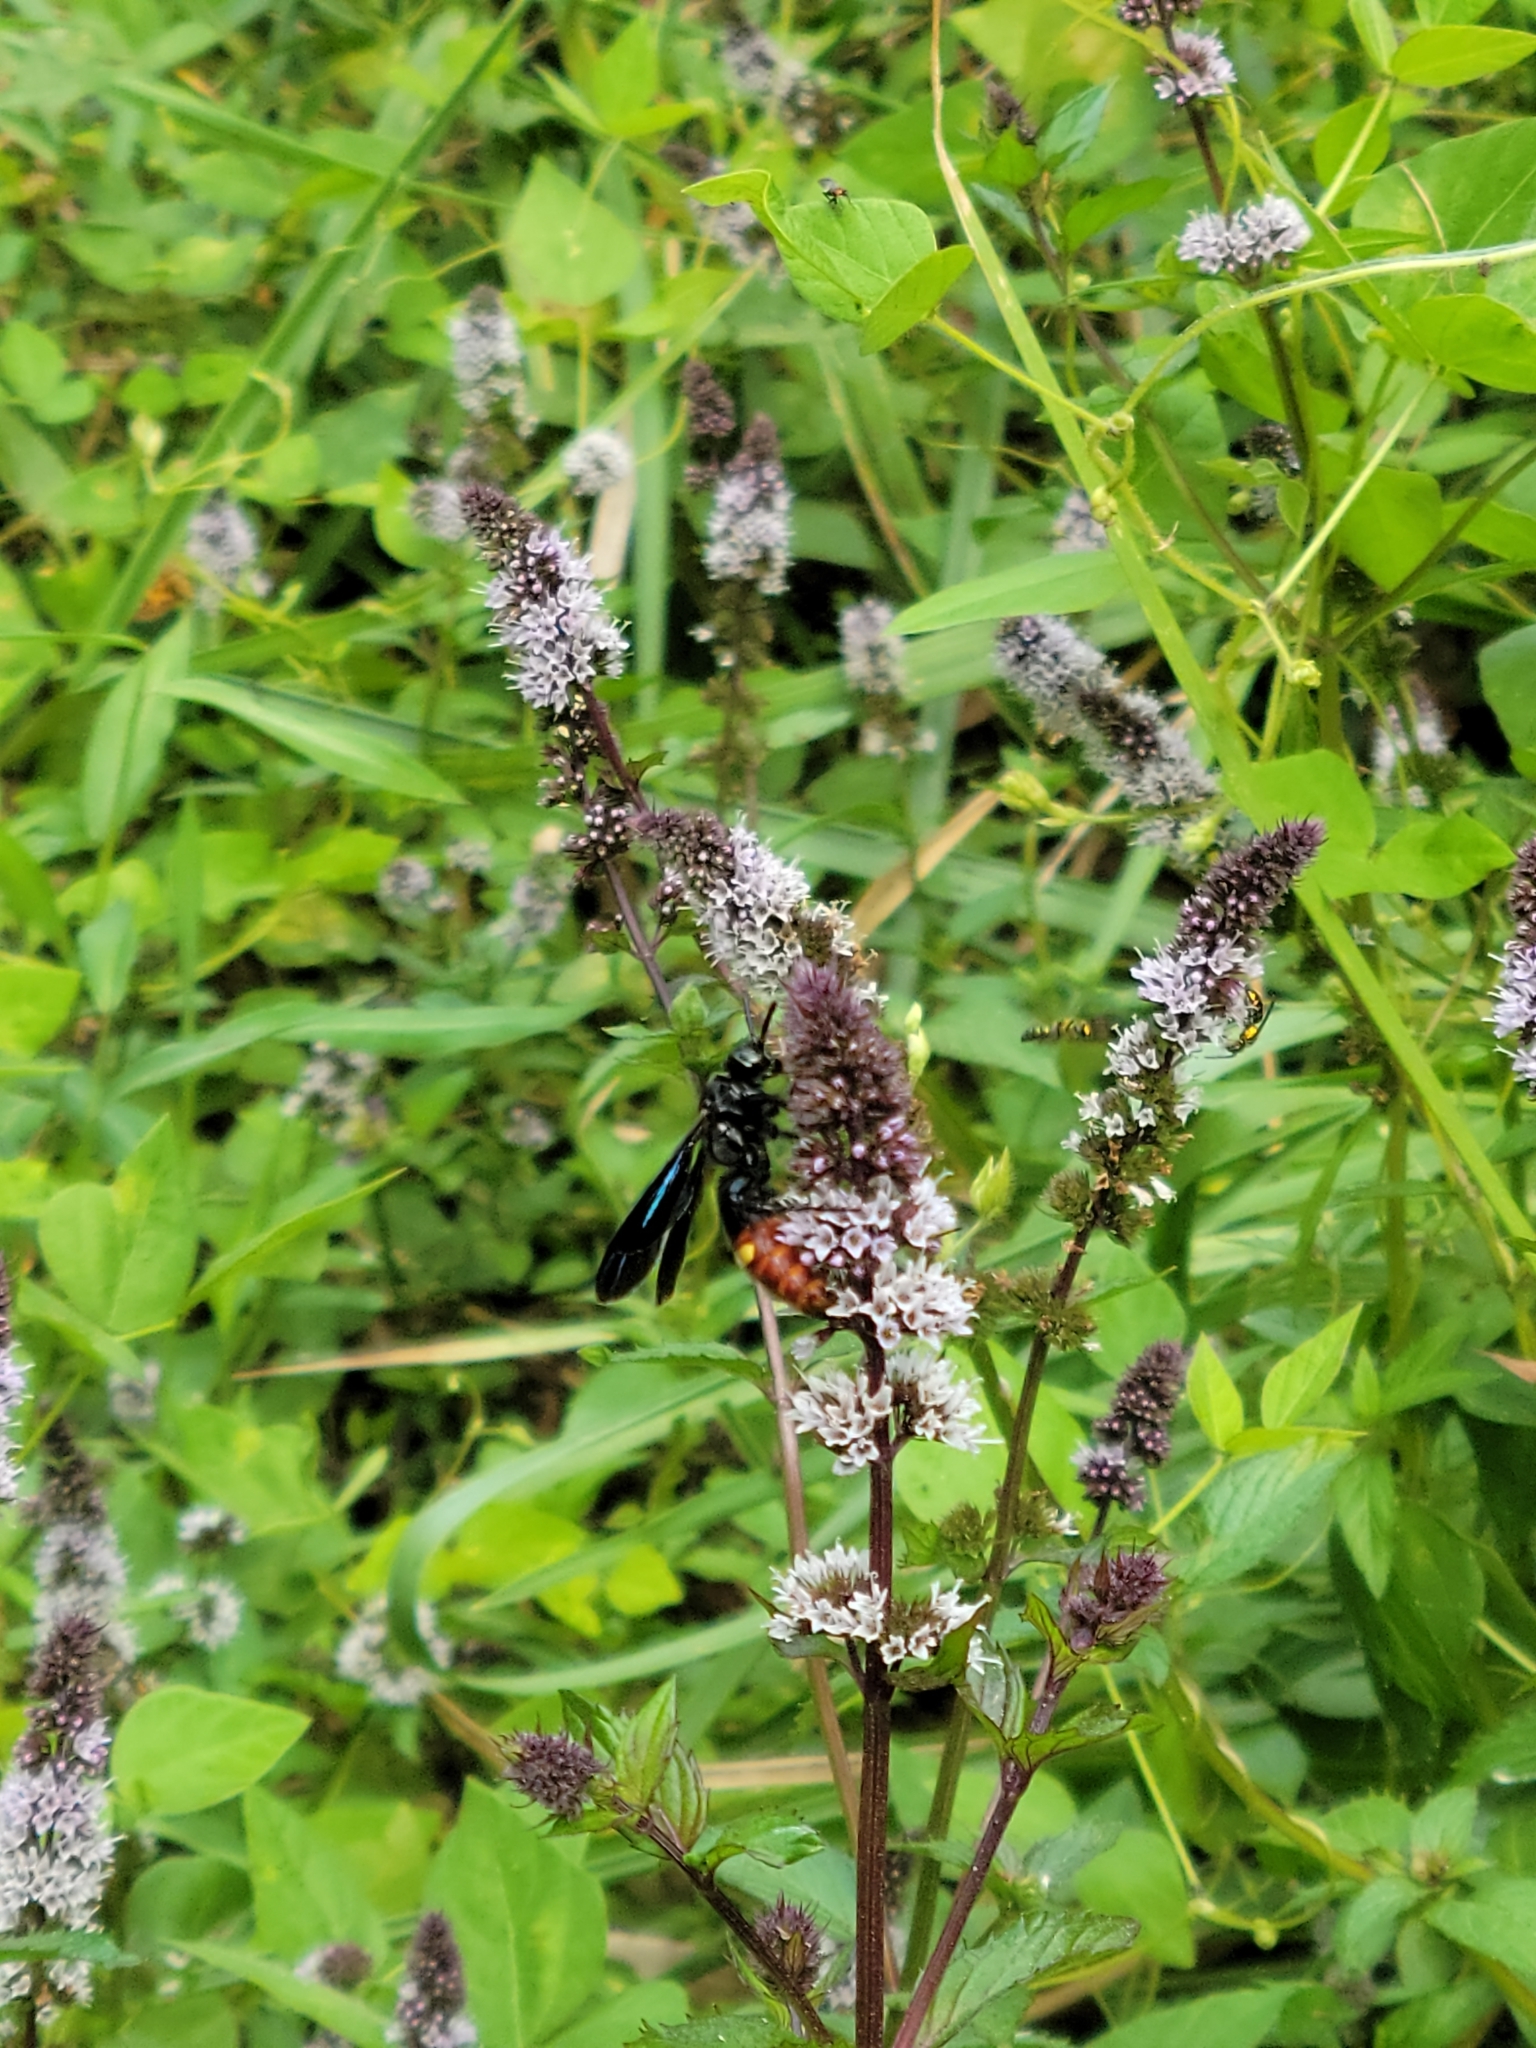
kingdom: Animalia
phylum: Arthropoda
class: Insecta
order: Hymenoptera
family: Scoliidae
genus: Scolia
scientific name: Scolia dubia
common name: Blue-winged scoliid wasp
